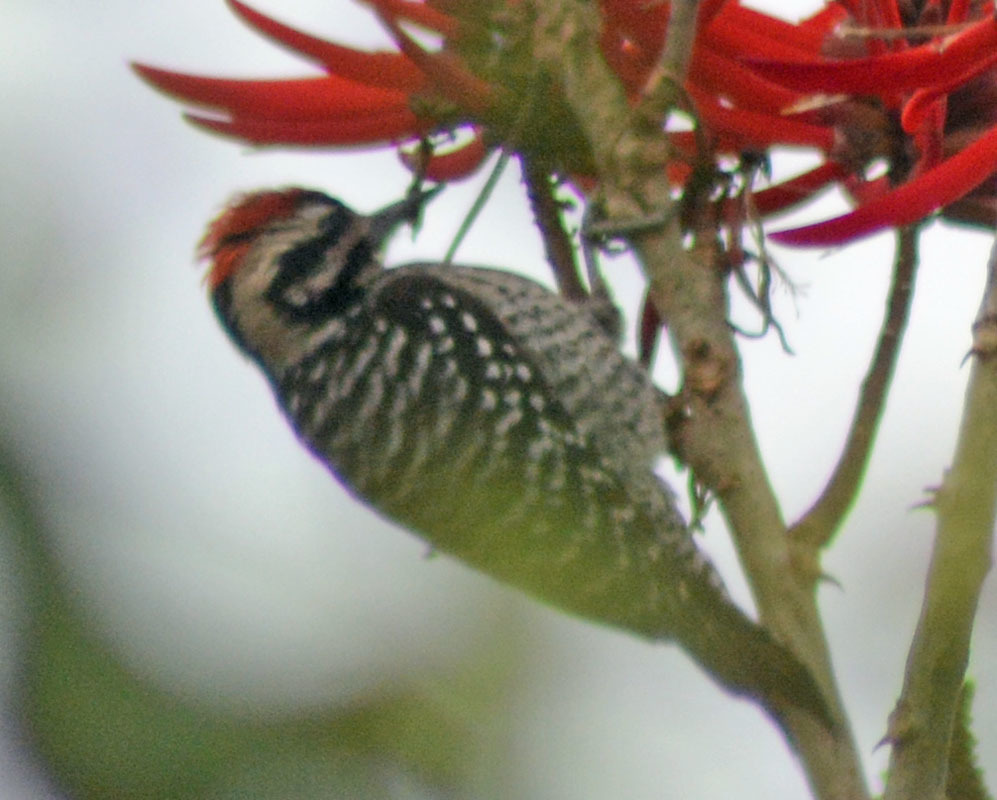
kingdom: Animalia
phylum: Chordata
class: Aves
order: Piciformes
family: Picidae
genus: Dryobates
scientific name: Dryobates scalaris
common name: Ladder-backed woodpecker
